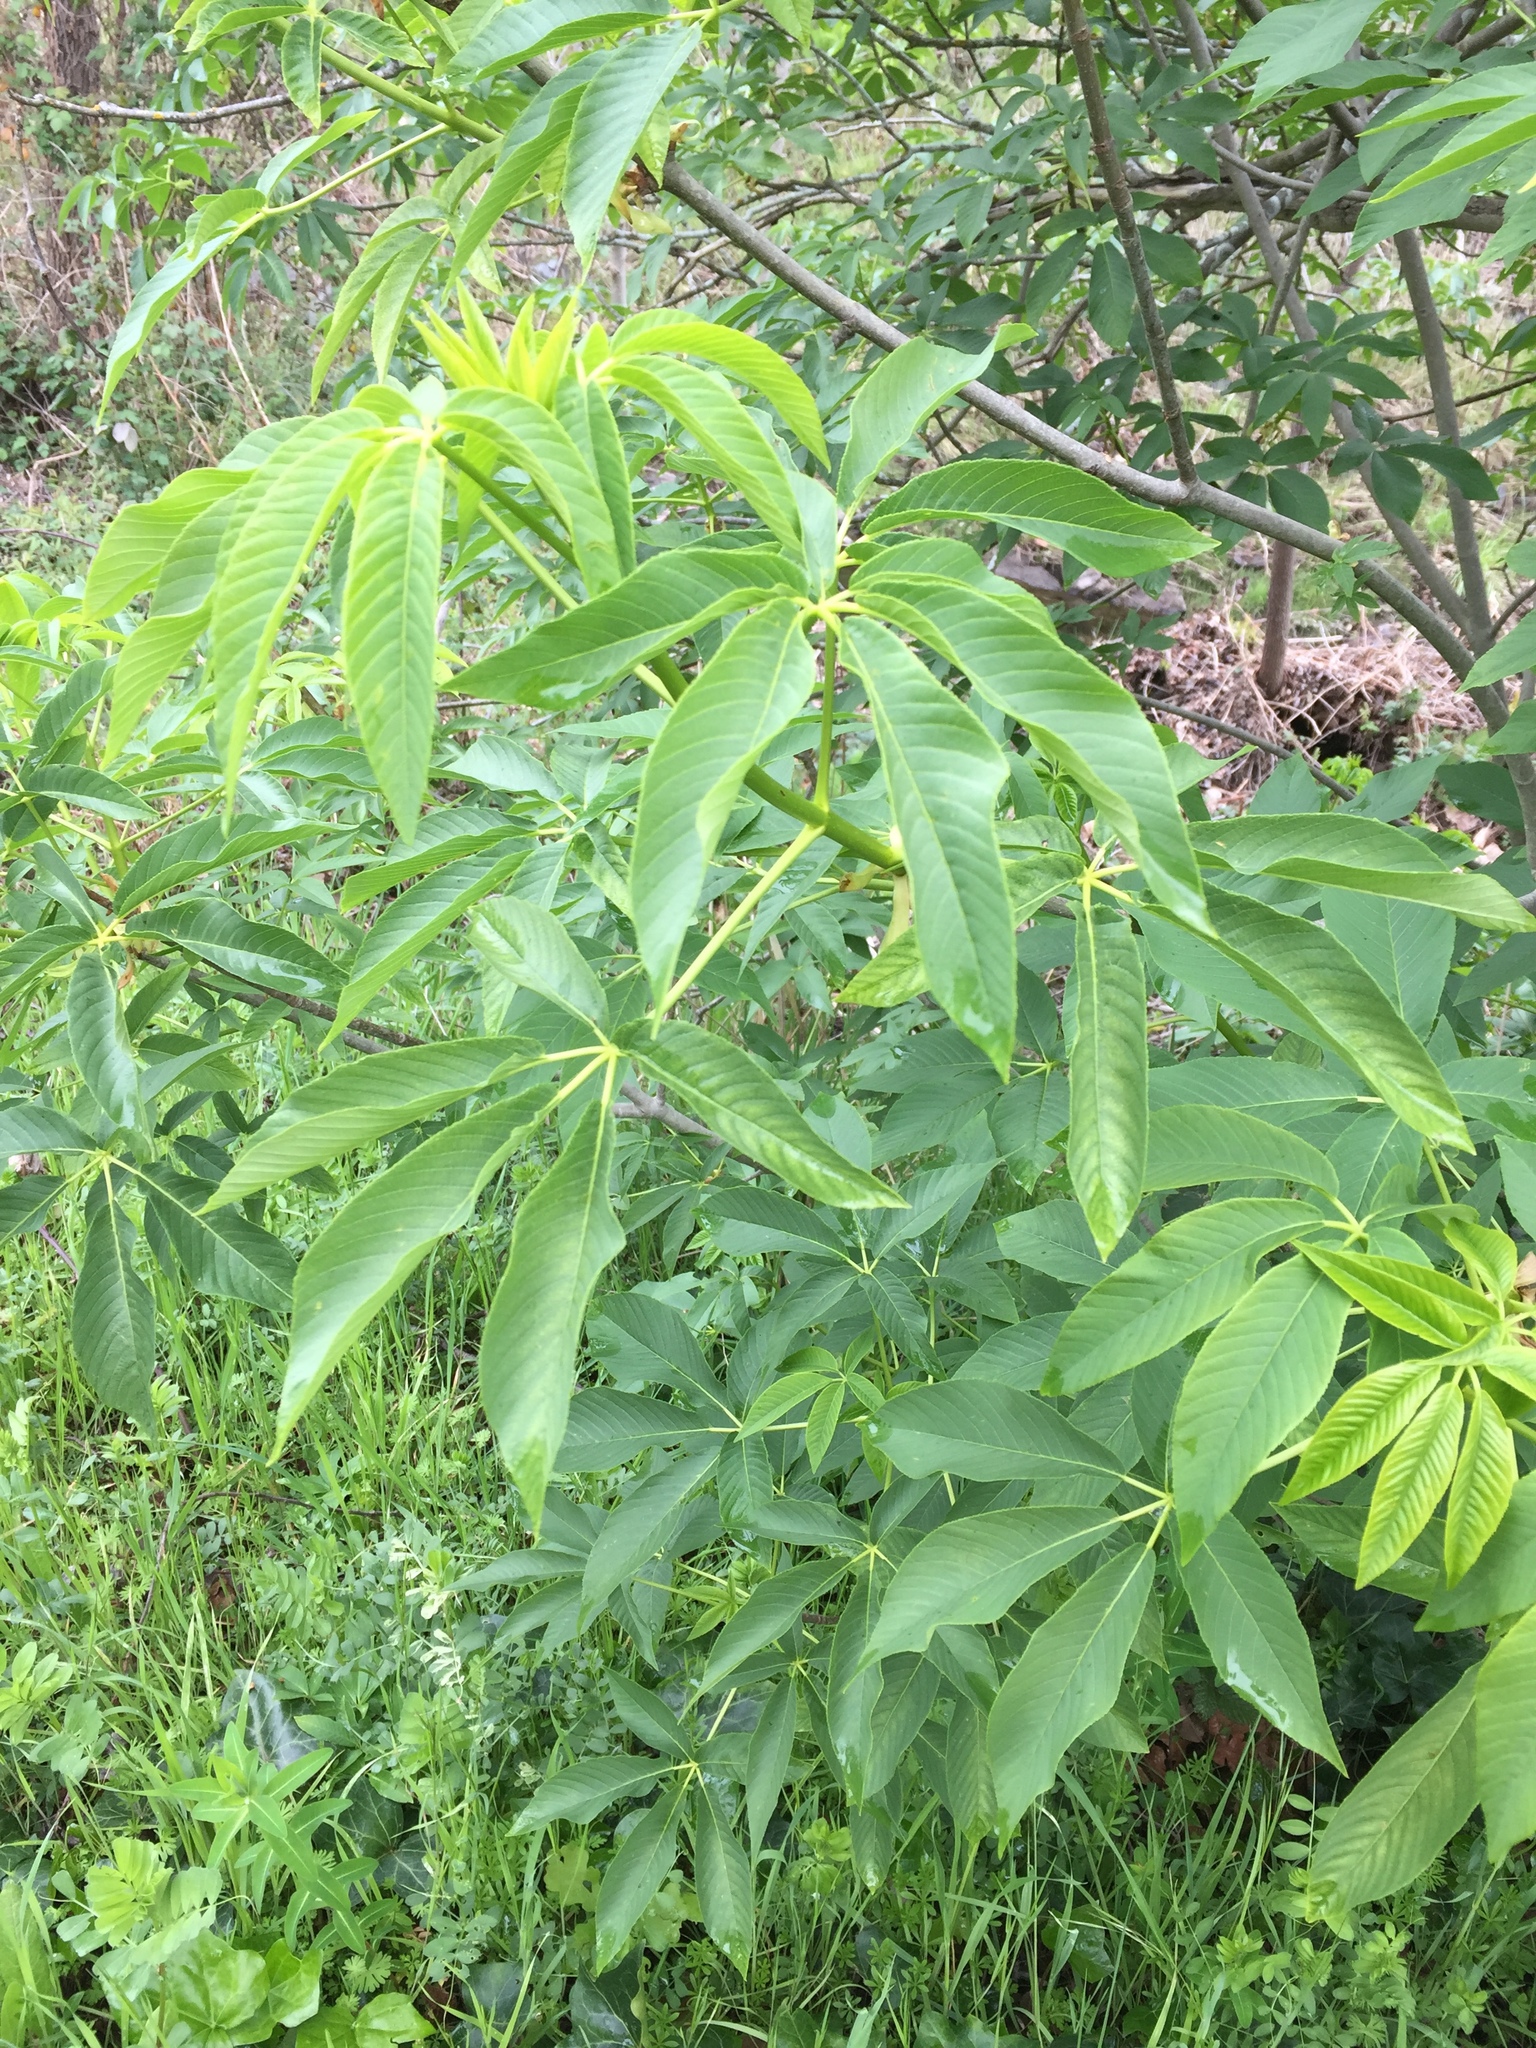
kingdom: Plantae
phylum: Tracheophyta
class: Magnoliopsida
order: Sapindales
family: Sapindaceae
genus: Aesculus
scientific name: Aesculus californica
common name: California buckeye
